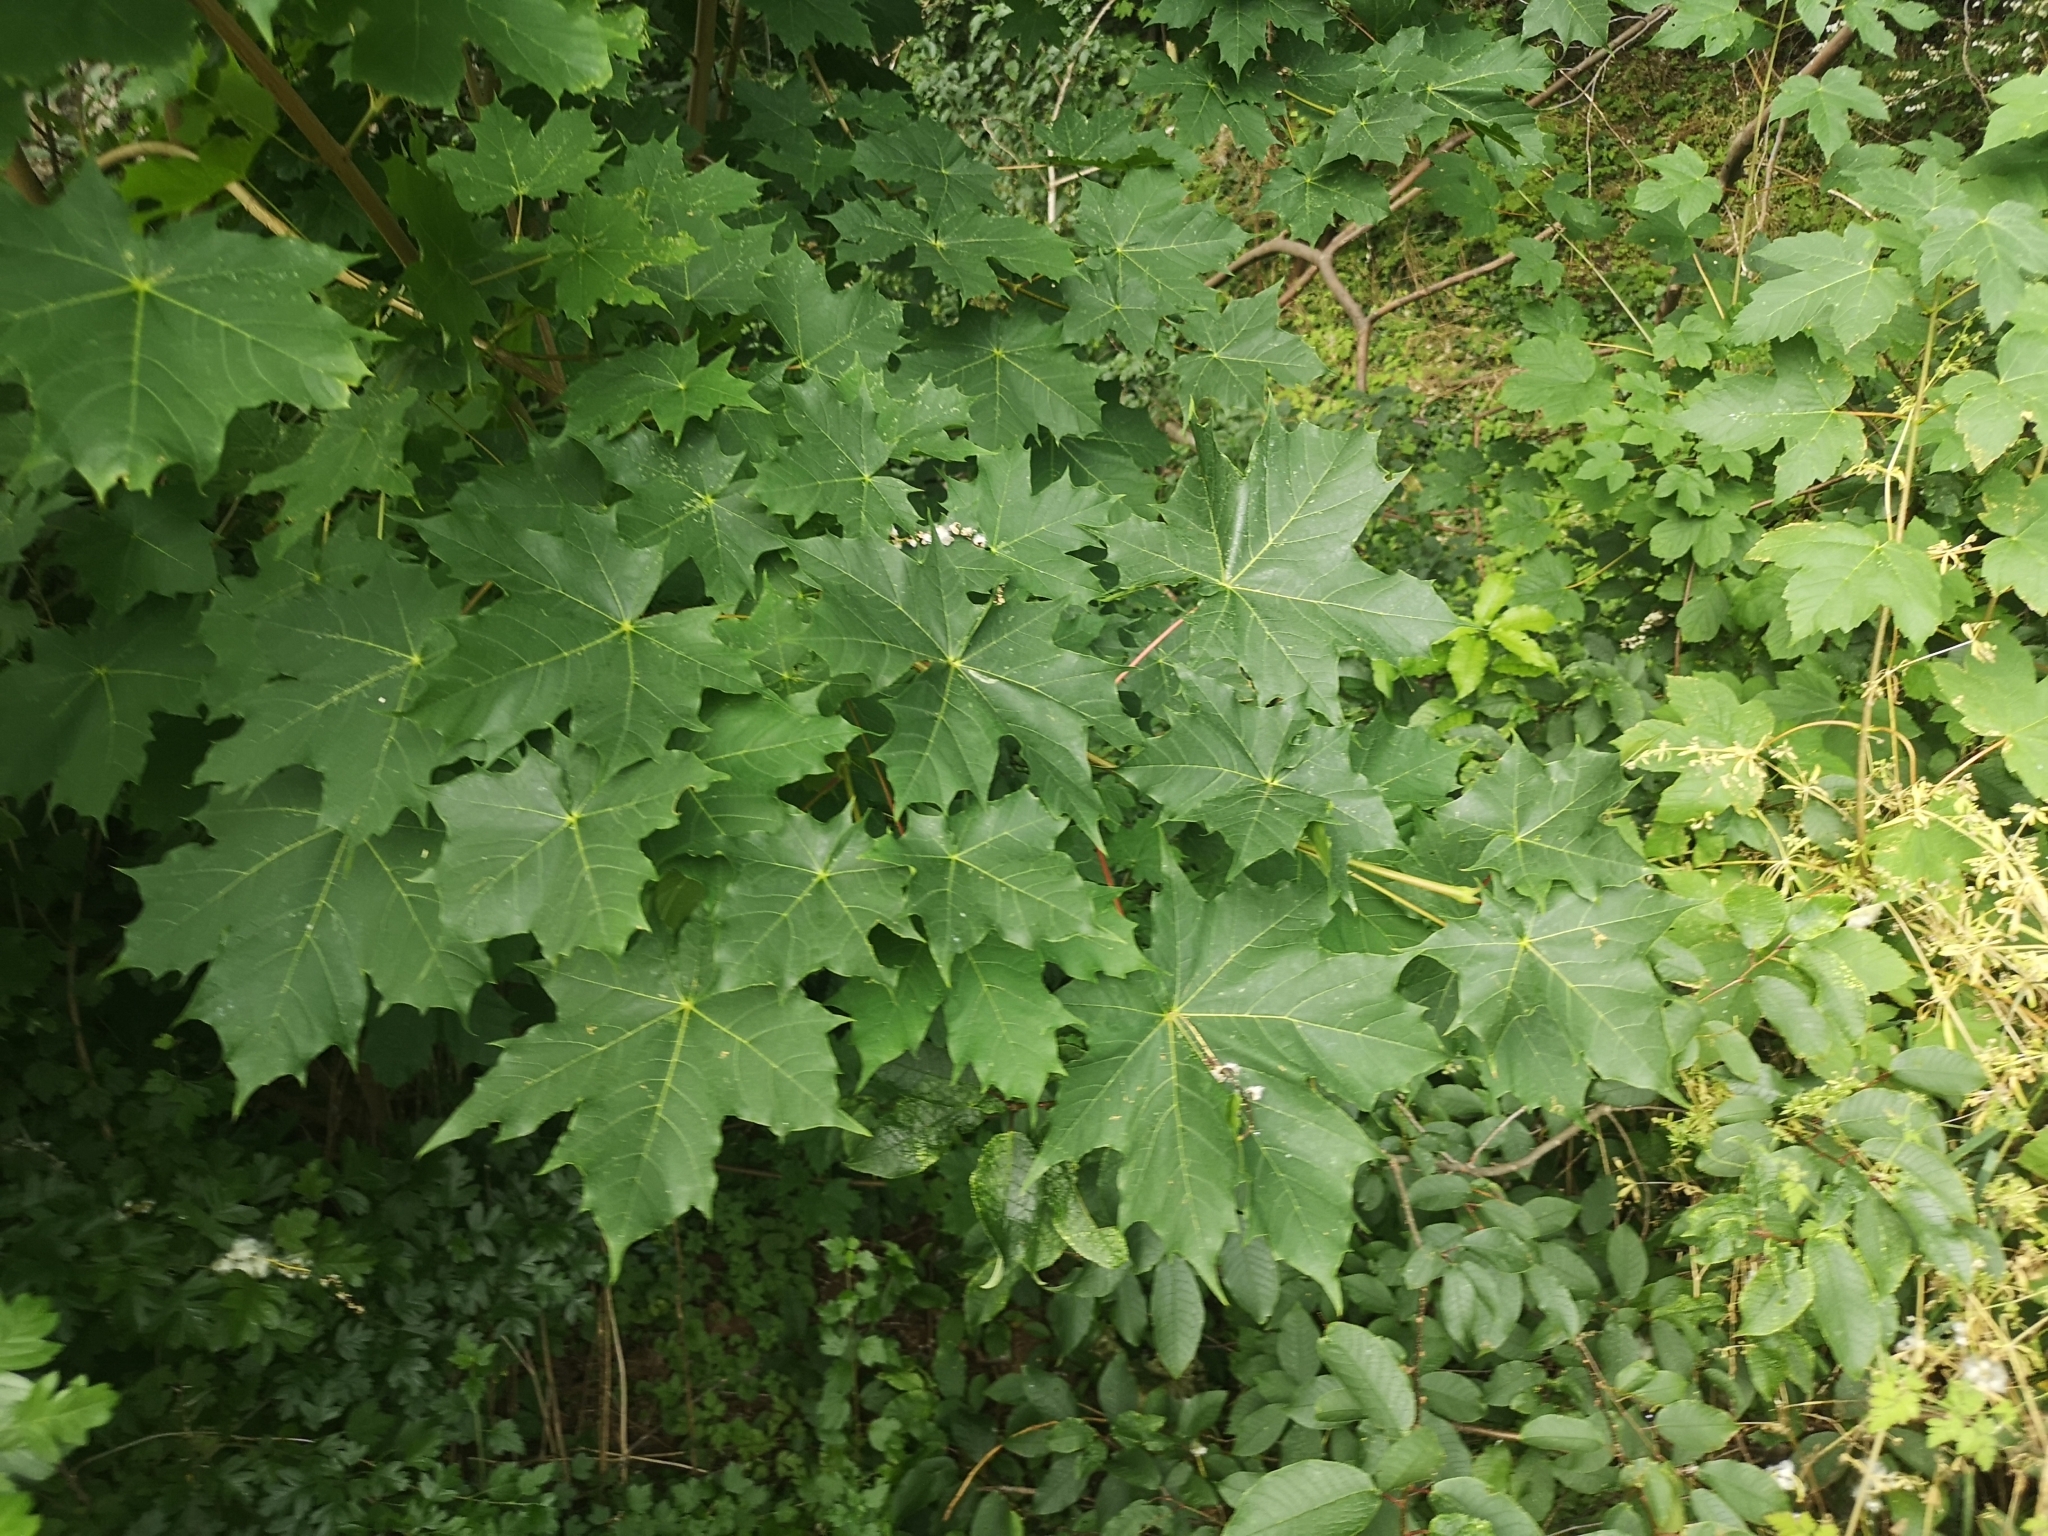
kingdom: Plantae
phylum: Tracheophyta
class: Magnoliopsida
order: Sapindales
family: Sapindaceae
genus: Acer
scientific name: Acer platanoides
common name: Norway maple
